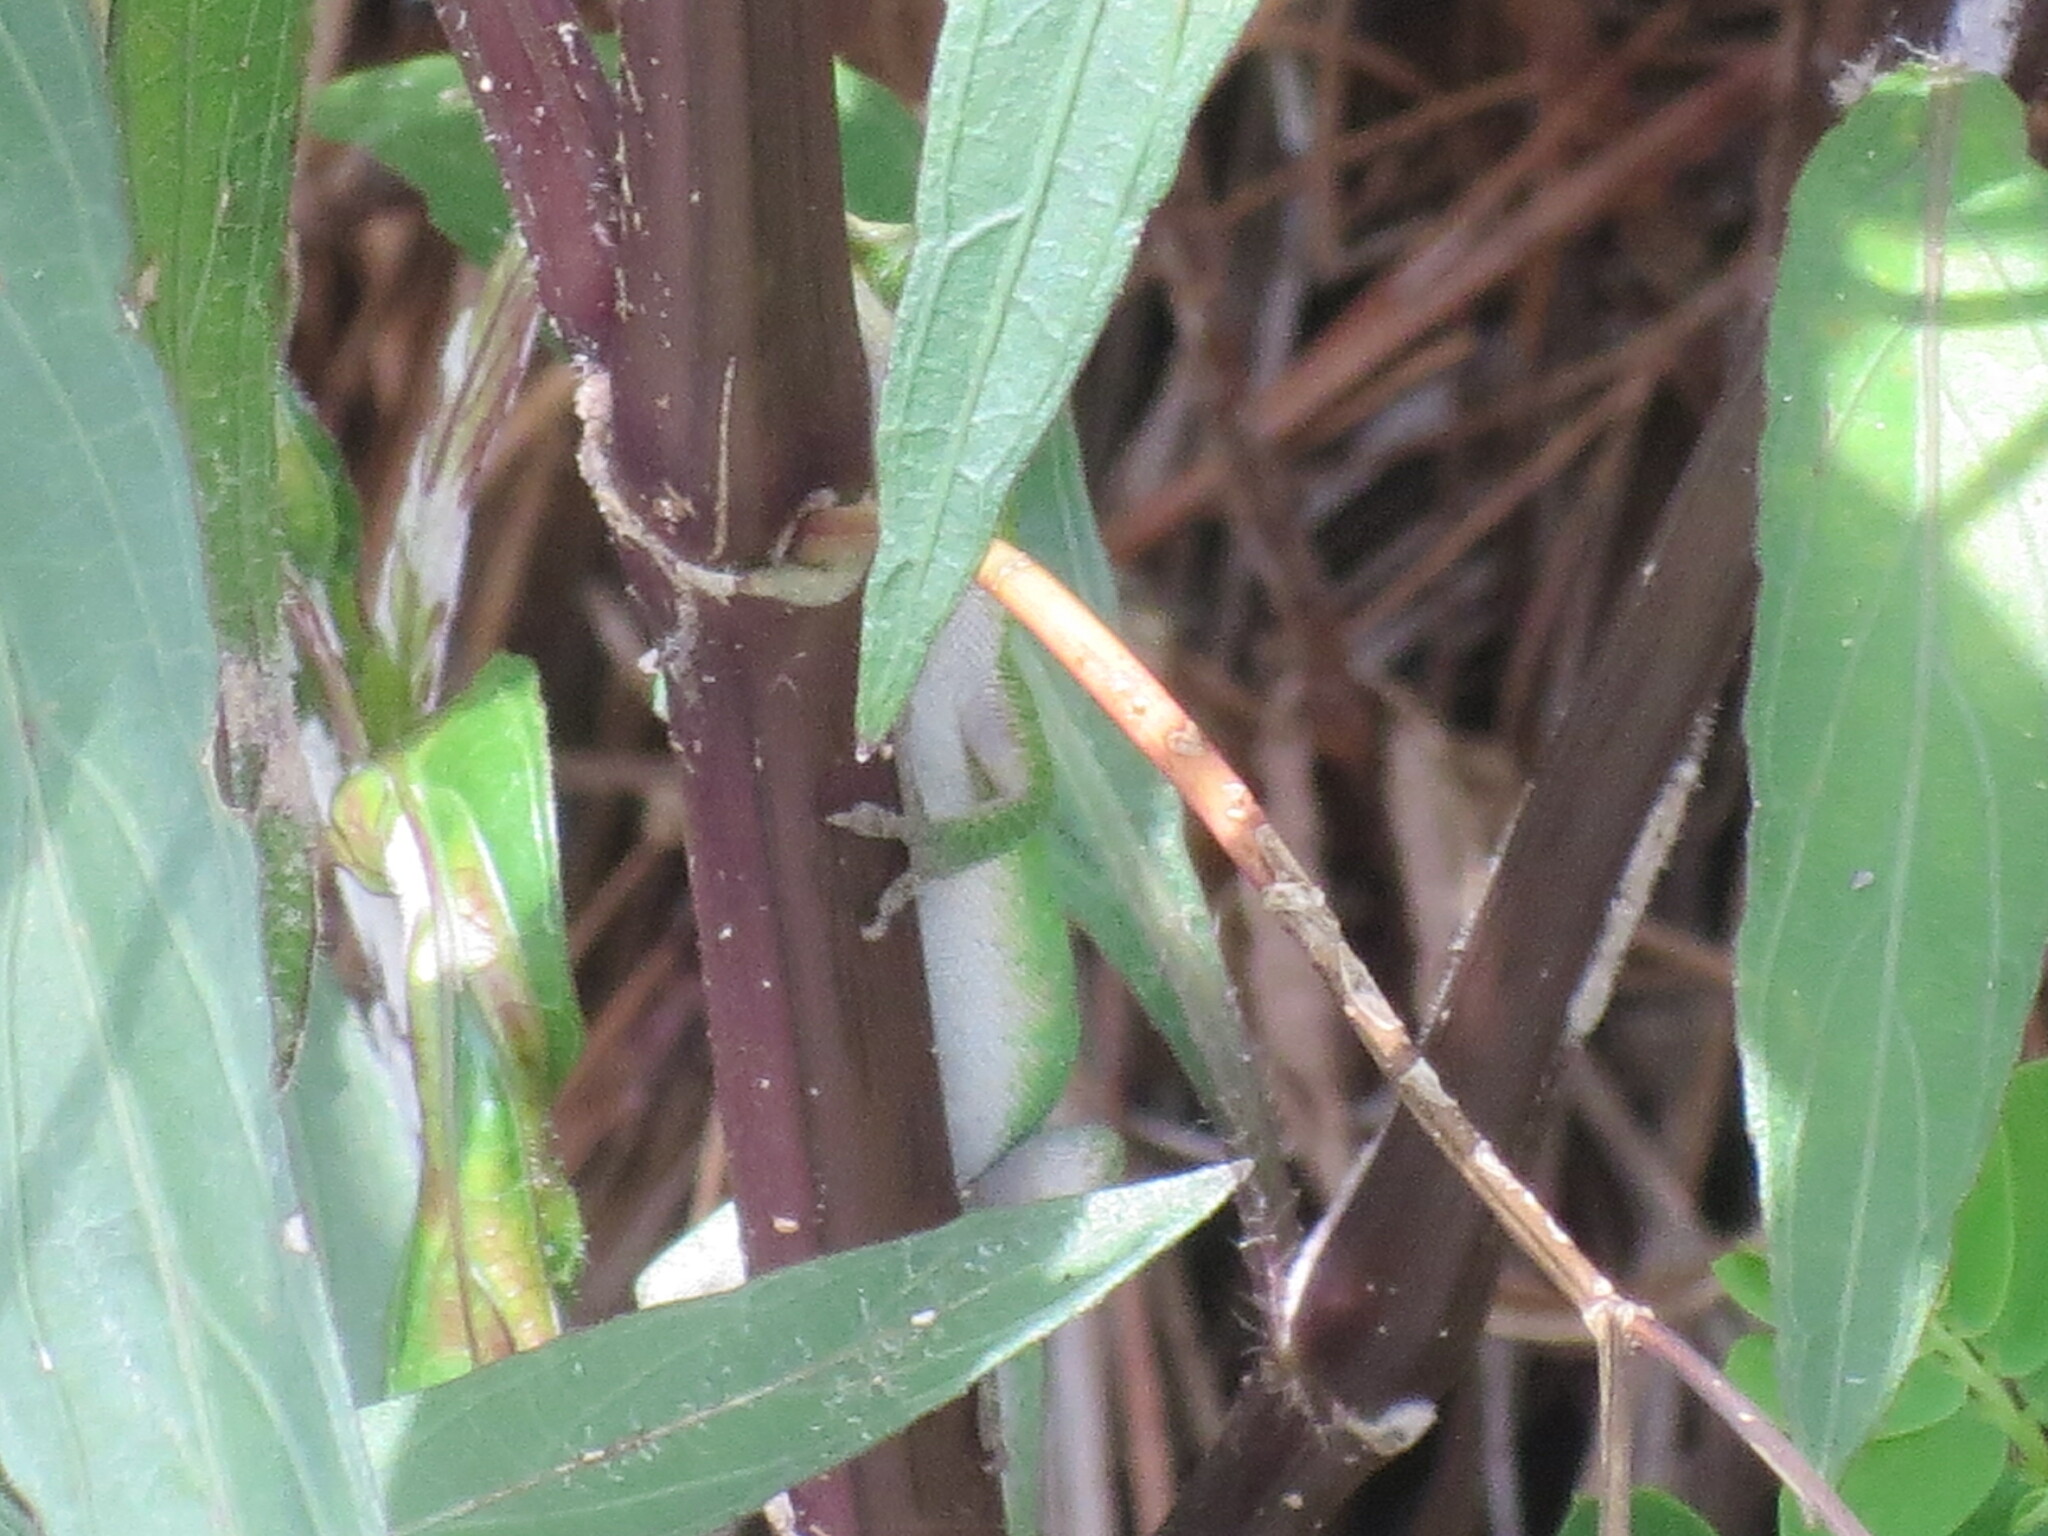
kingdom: Animalia
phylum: Chordata
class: Squamata
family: Dactyloidae
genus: Anolis
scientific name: Anolis carolinensis
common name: Green anole
